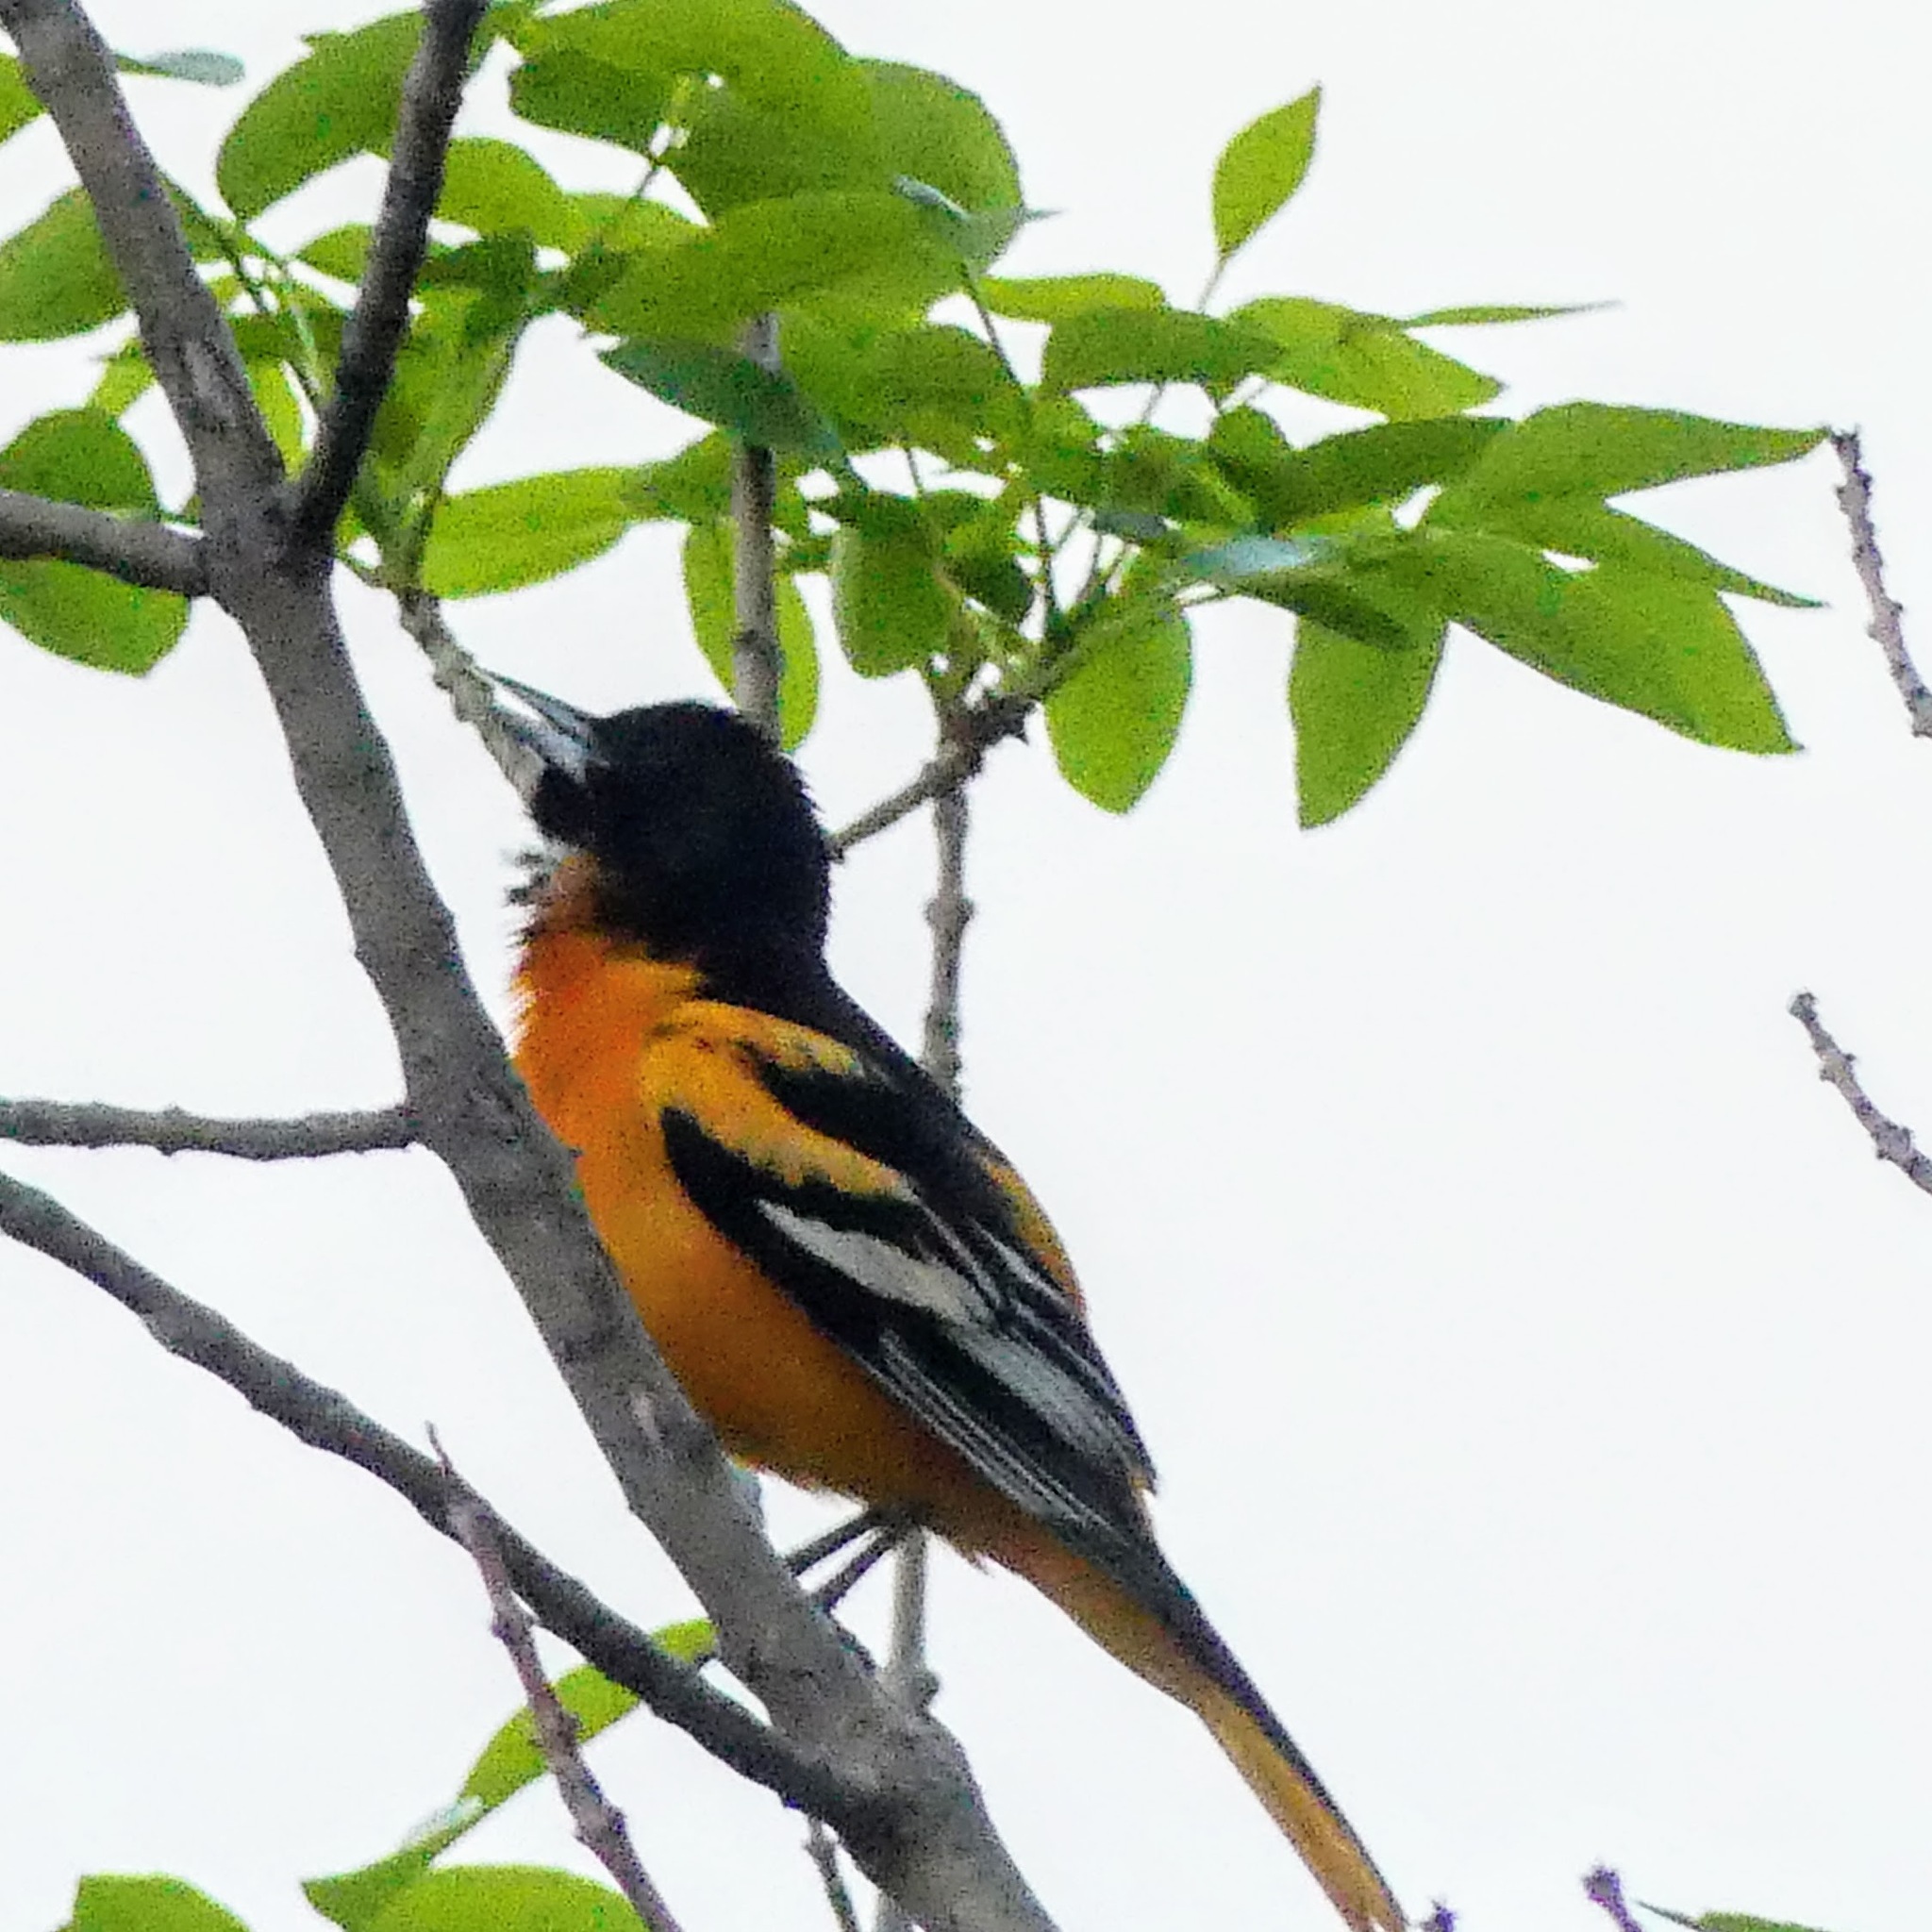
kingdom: Animalia
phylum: Chordata
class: Aves
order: Passeriformes
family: Icteridae
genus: Icterus
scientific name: Icterus galbula
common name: Baltimore oriole
